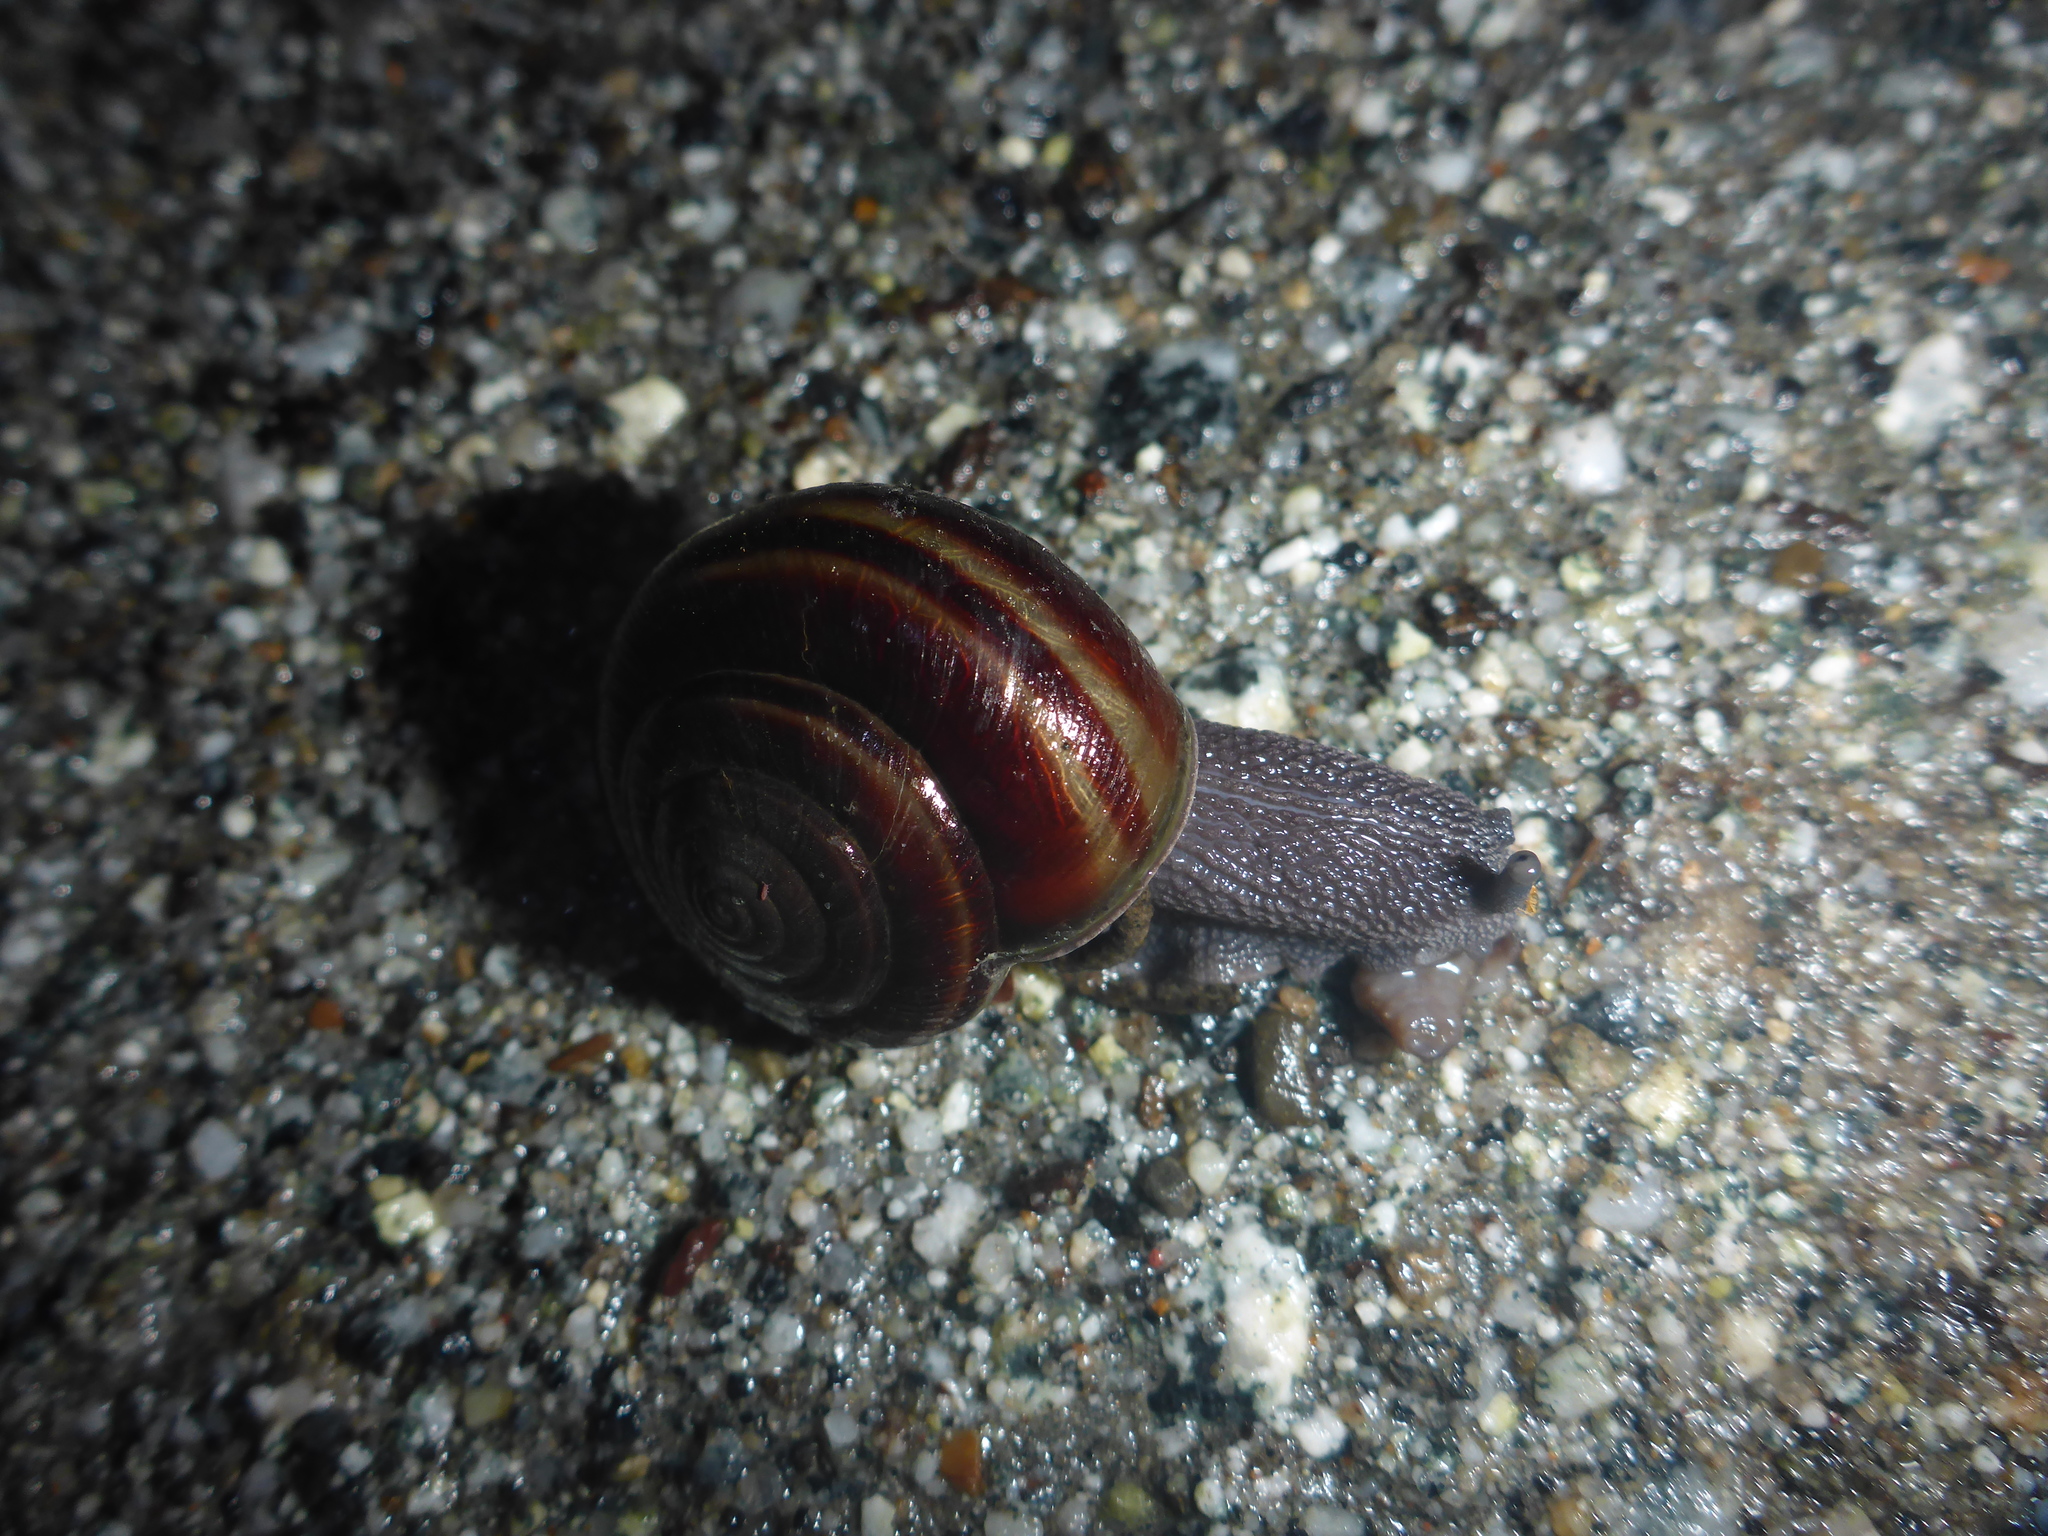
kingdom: Animalia
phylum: Mollusca
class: Gastropoda
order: Stylommatophora
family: Xanthonychidae
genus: Helminthoglypta
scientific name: Helminthoglypta sequoicola
